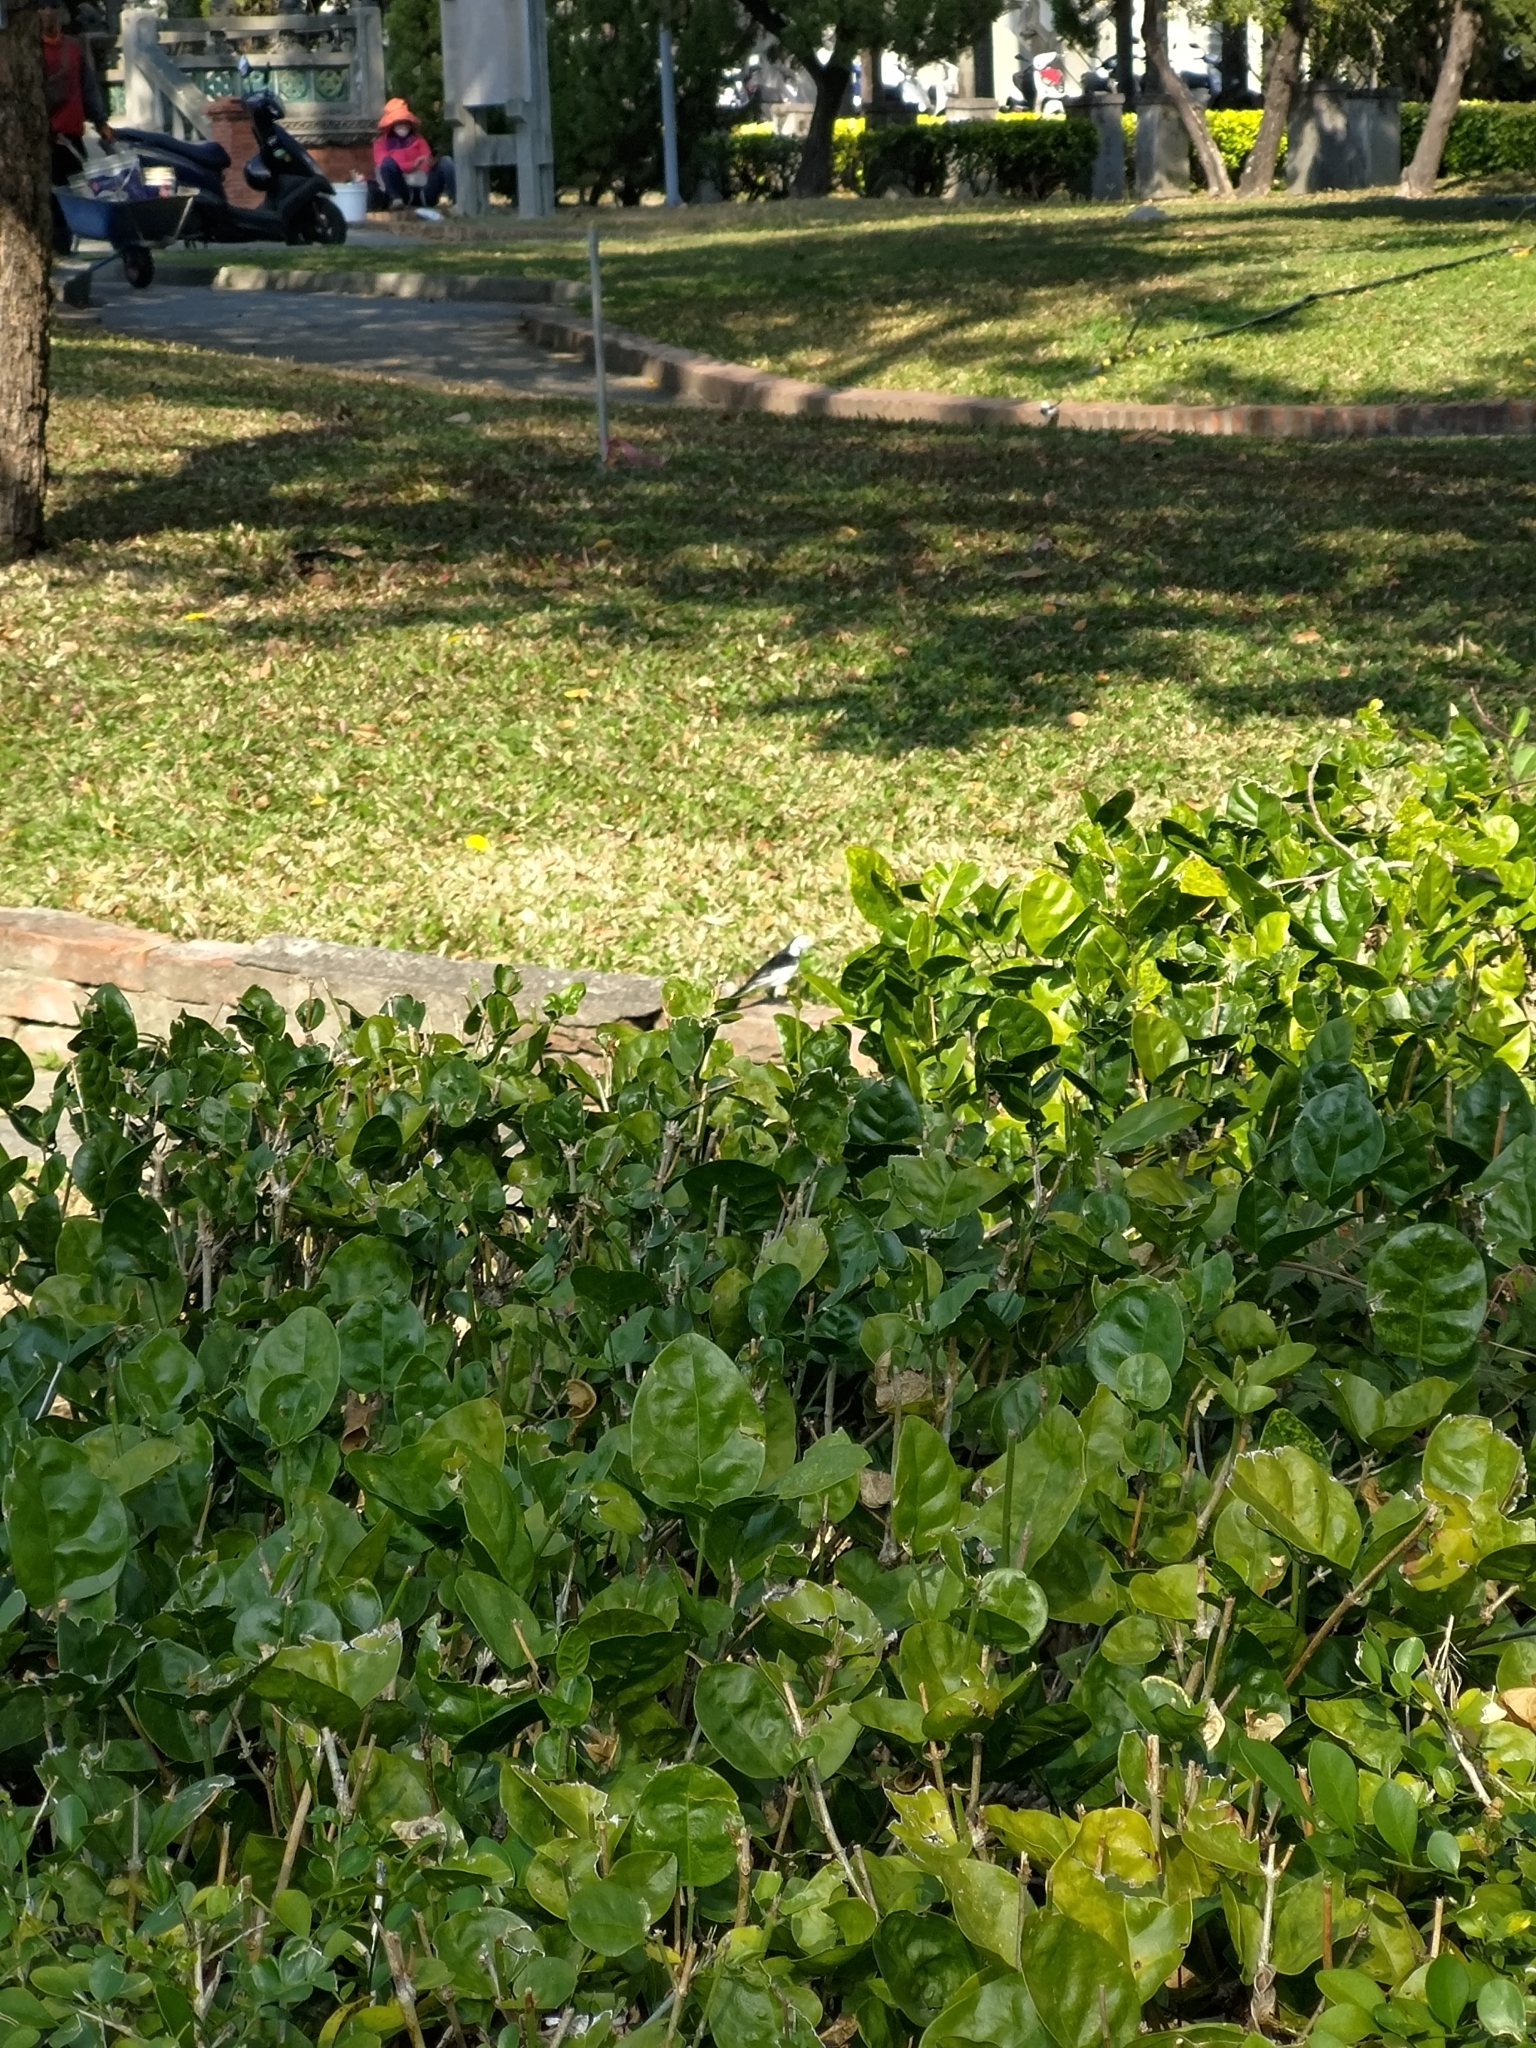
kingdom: Animalia
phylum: Chordata
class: Aves
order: Passeriformes
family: Motacillidae
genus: Motacilla
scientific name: Motacilla alba
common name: White wagtail
